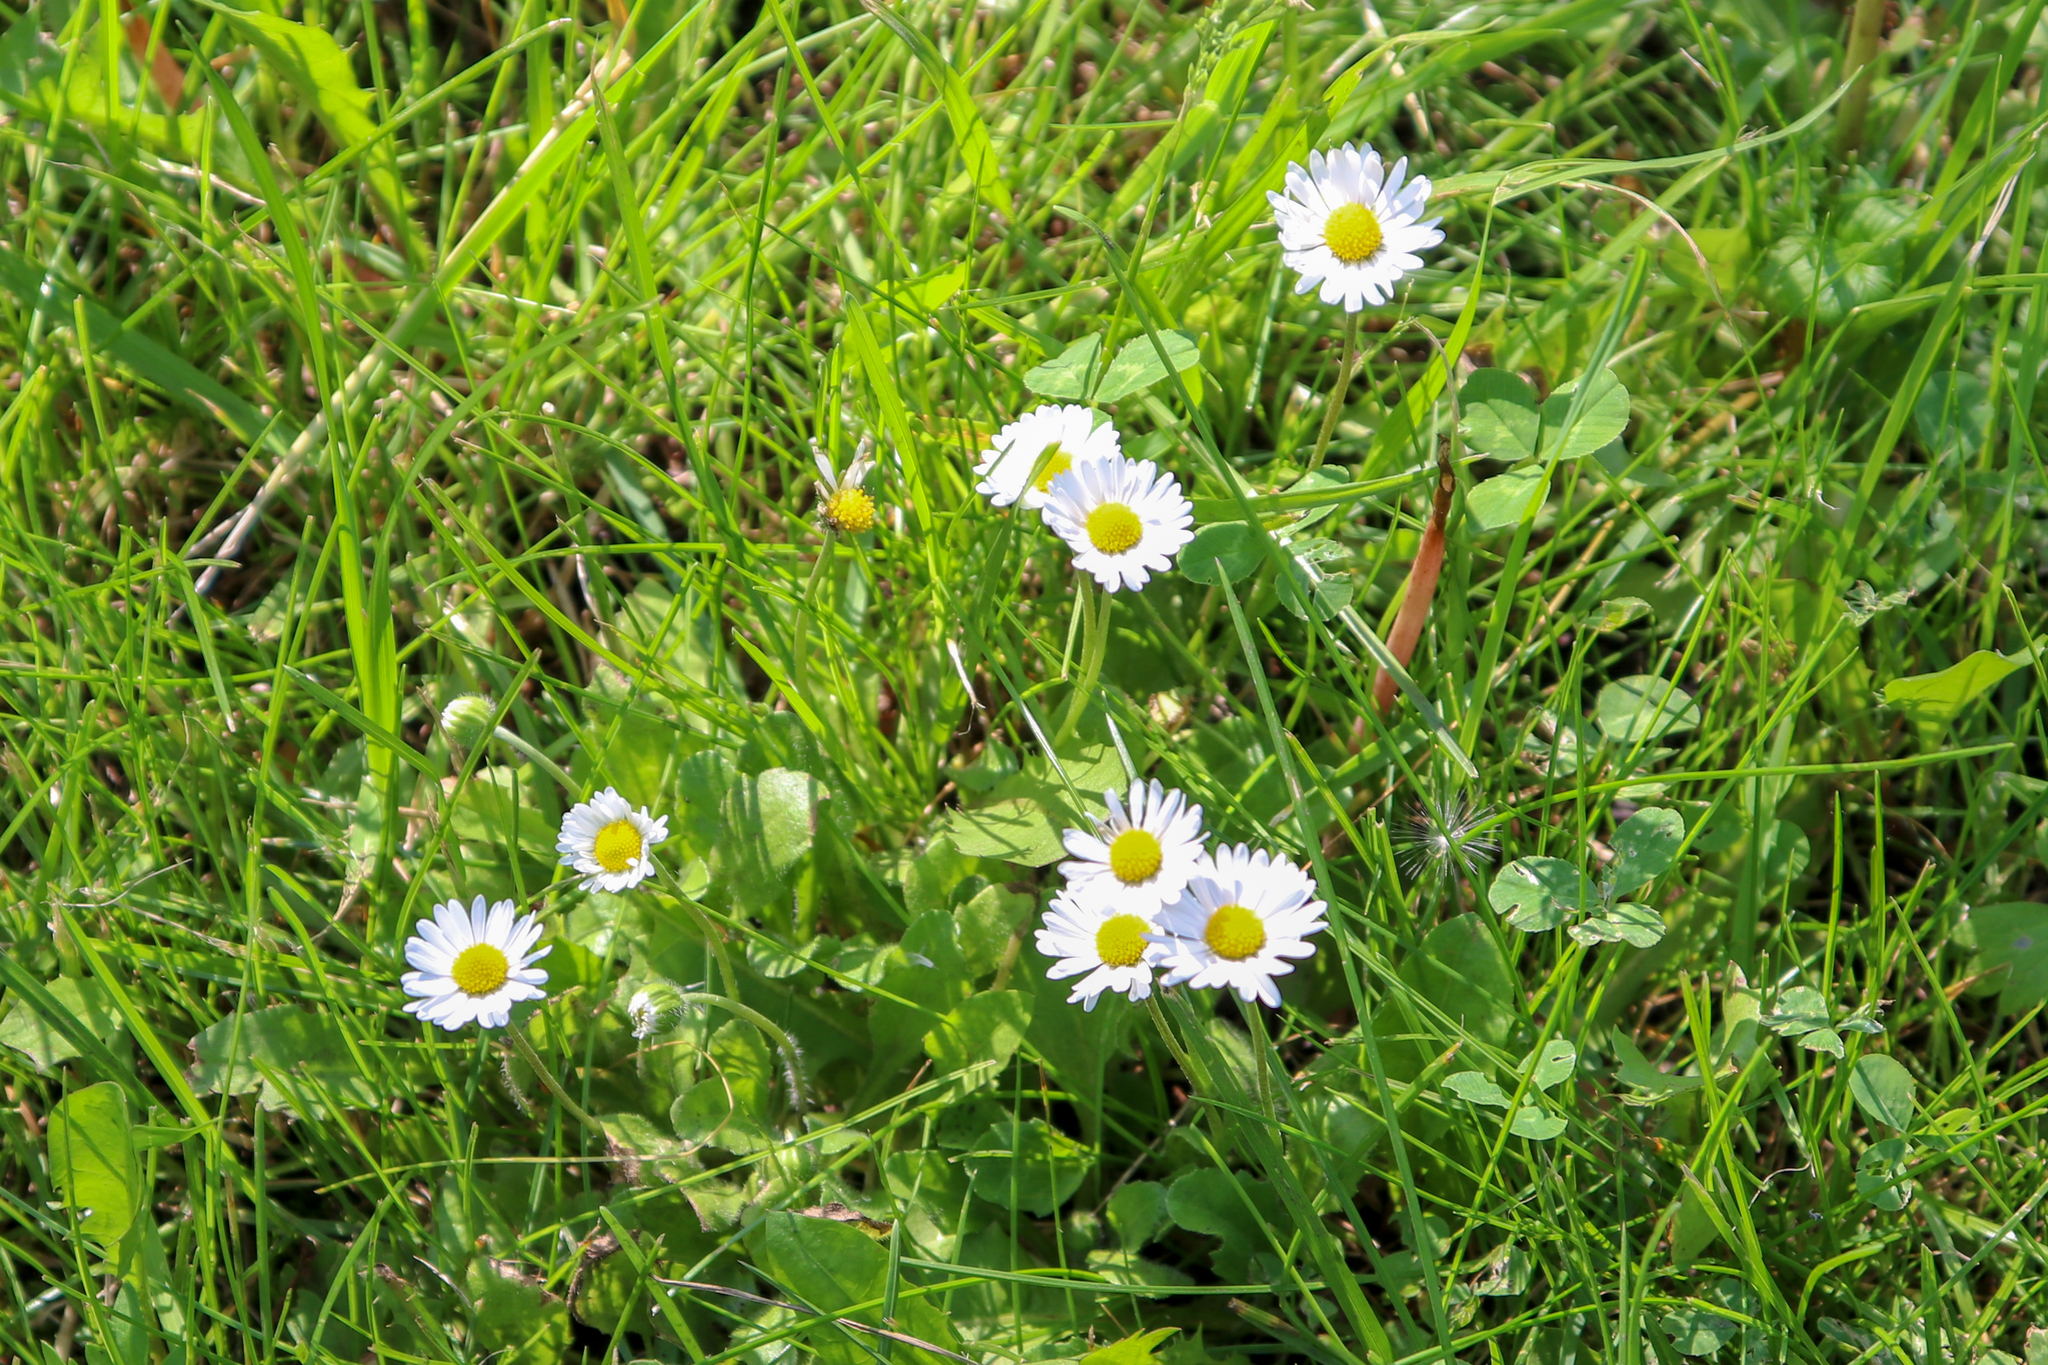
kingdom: Plantae
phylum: Tracheophyta
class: Magnoliopsida
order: Asterales
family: Asteraceae
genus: Bellis
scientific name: Bellis perennis
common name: Lawndaisy
